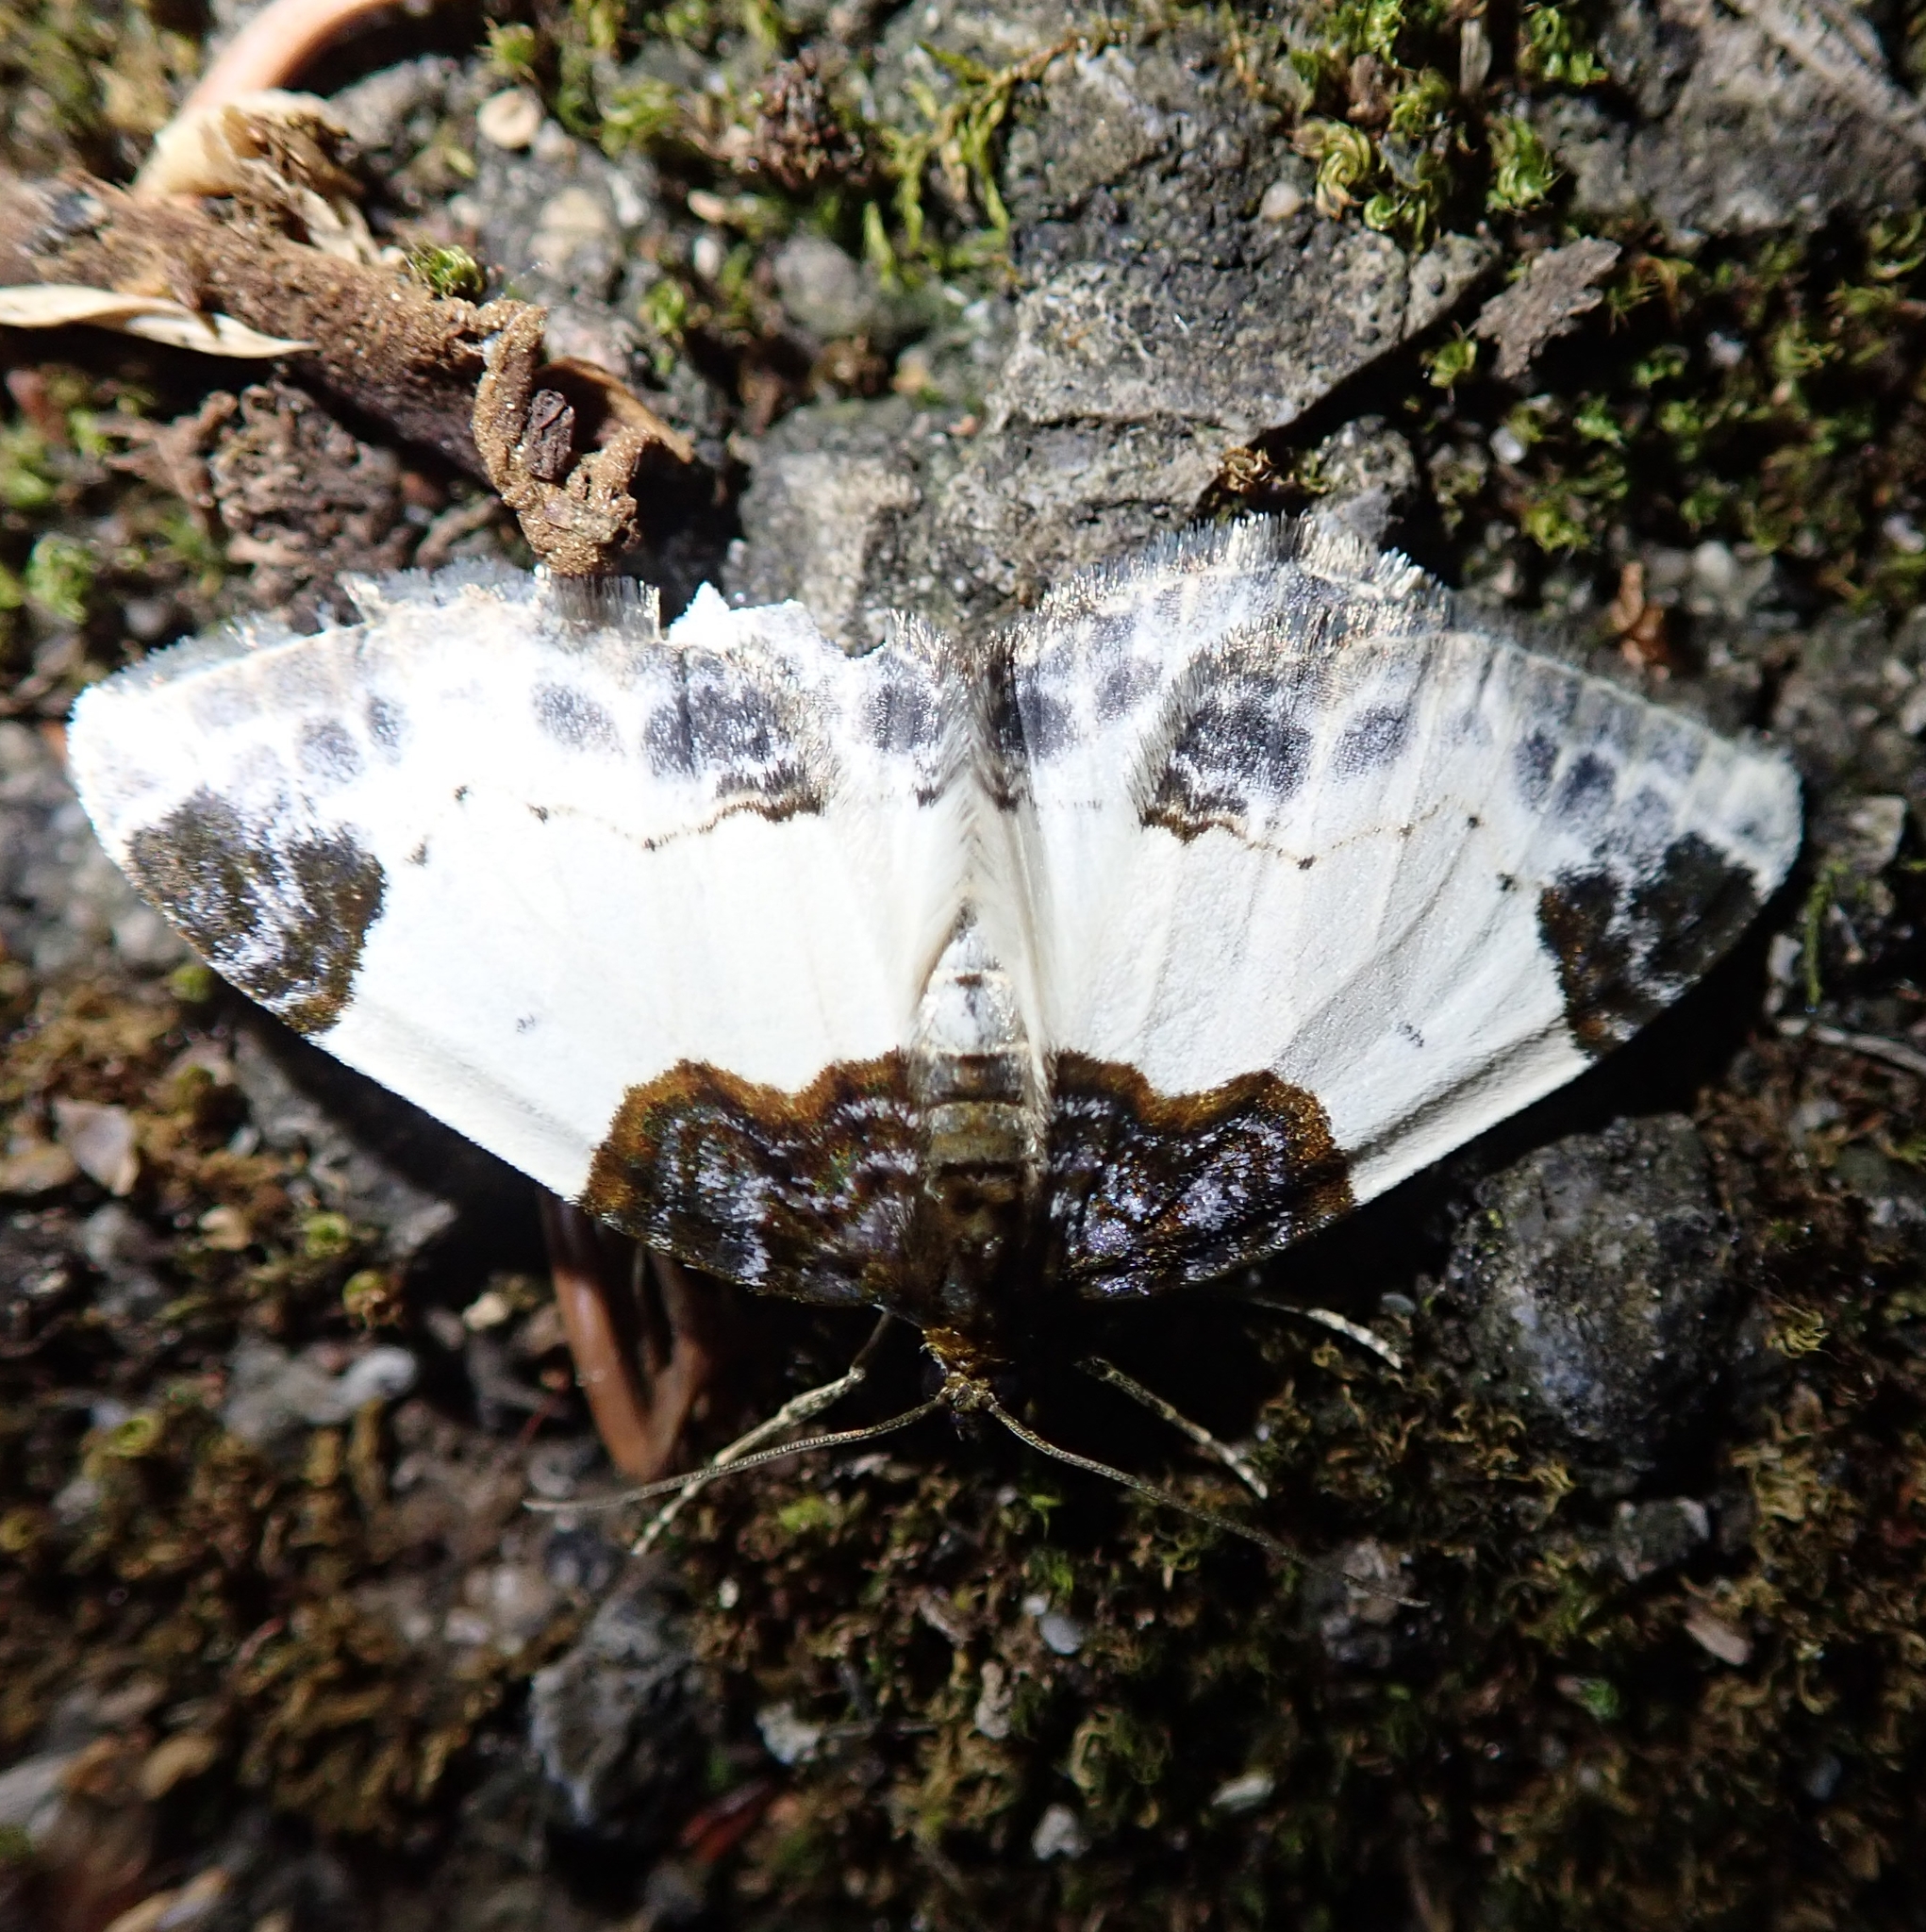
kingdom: Animalia
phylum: Arthropoda
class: Insecta
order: Lepidoptera
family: Geometridae
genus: Mesoleuca
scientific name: Mesoleuca albicillata
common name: Beautiful carpet
